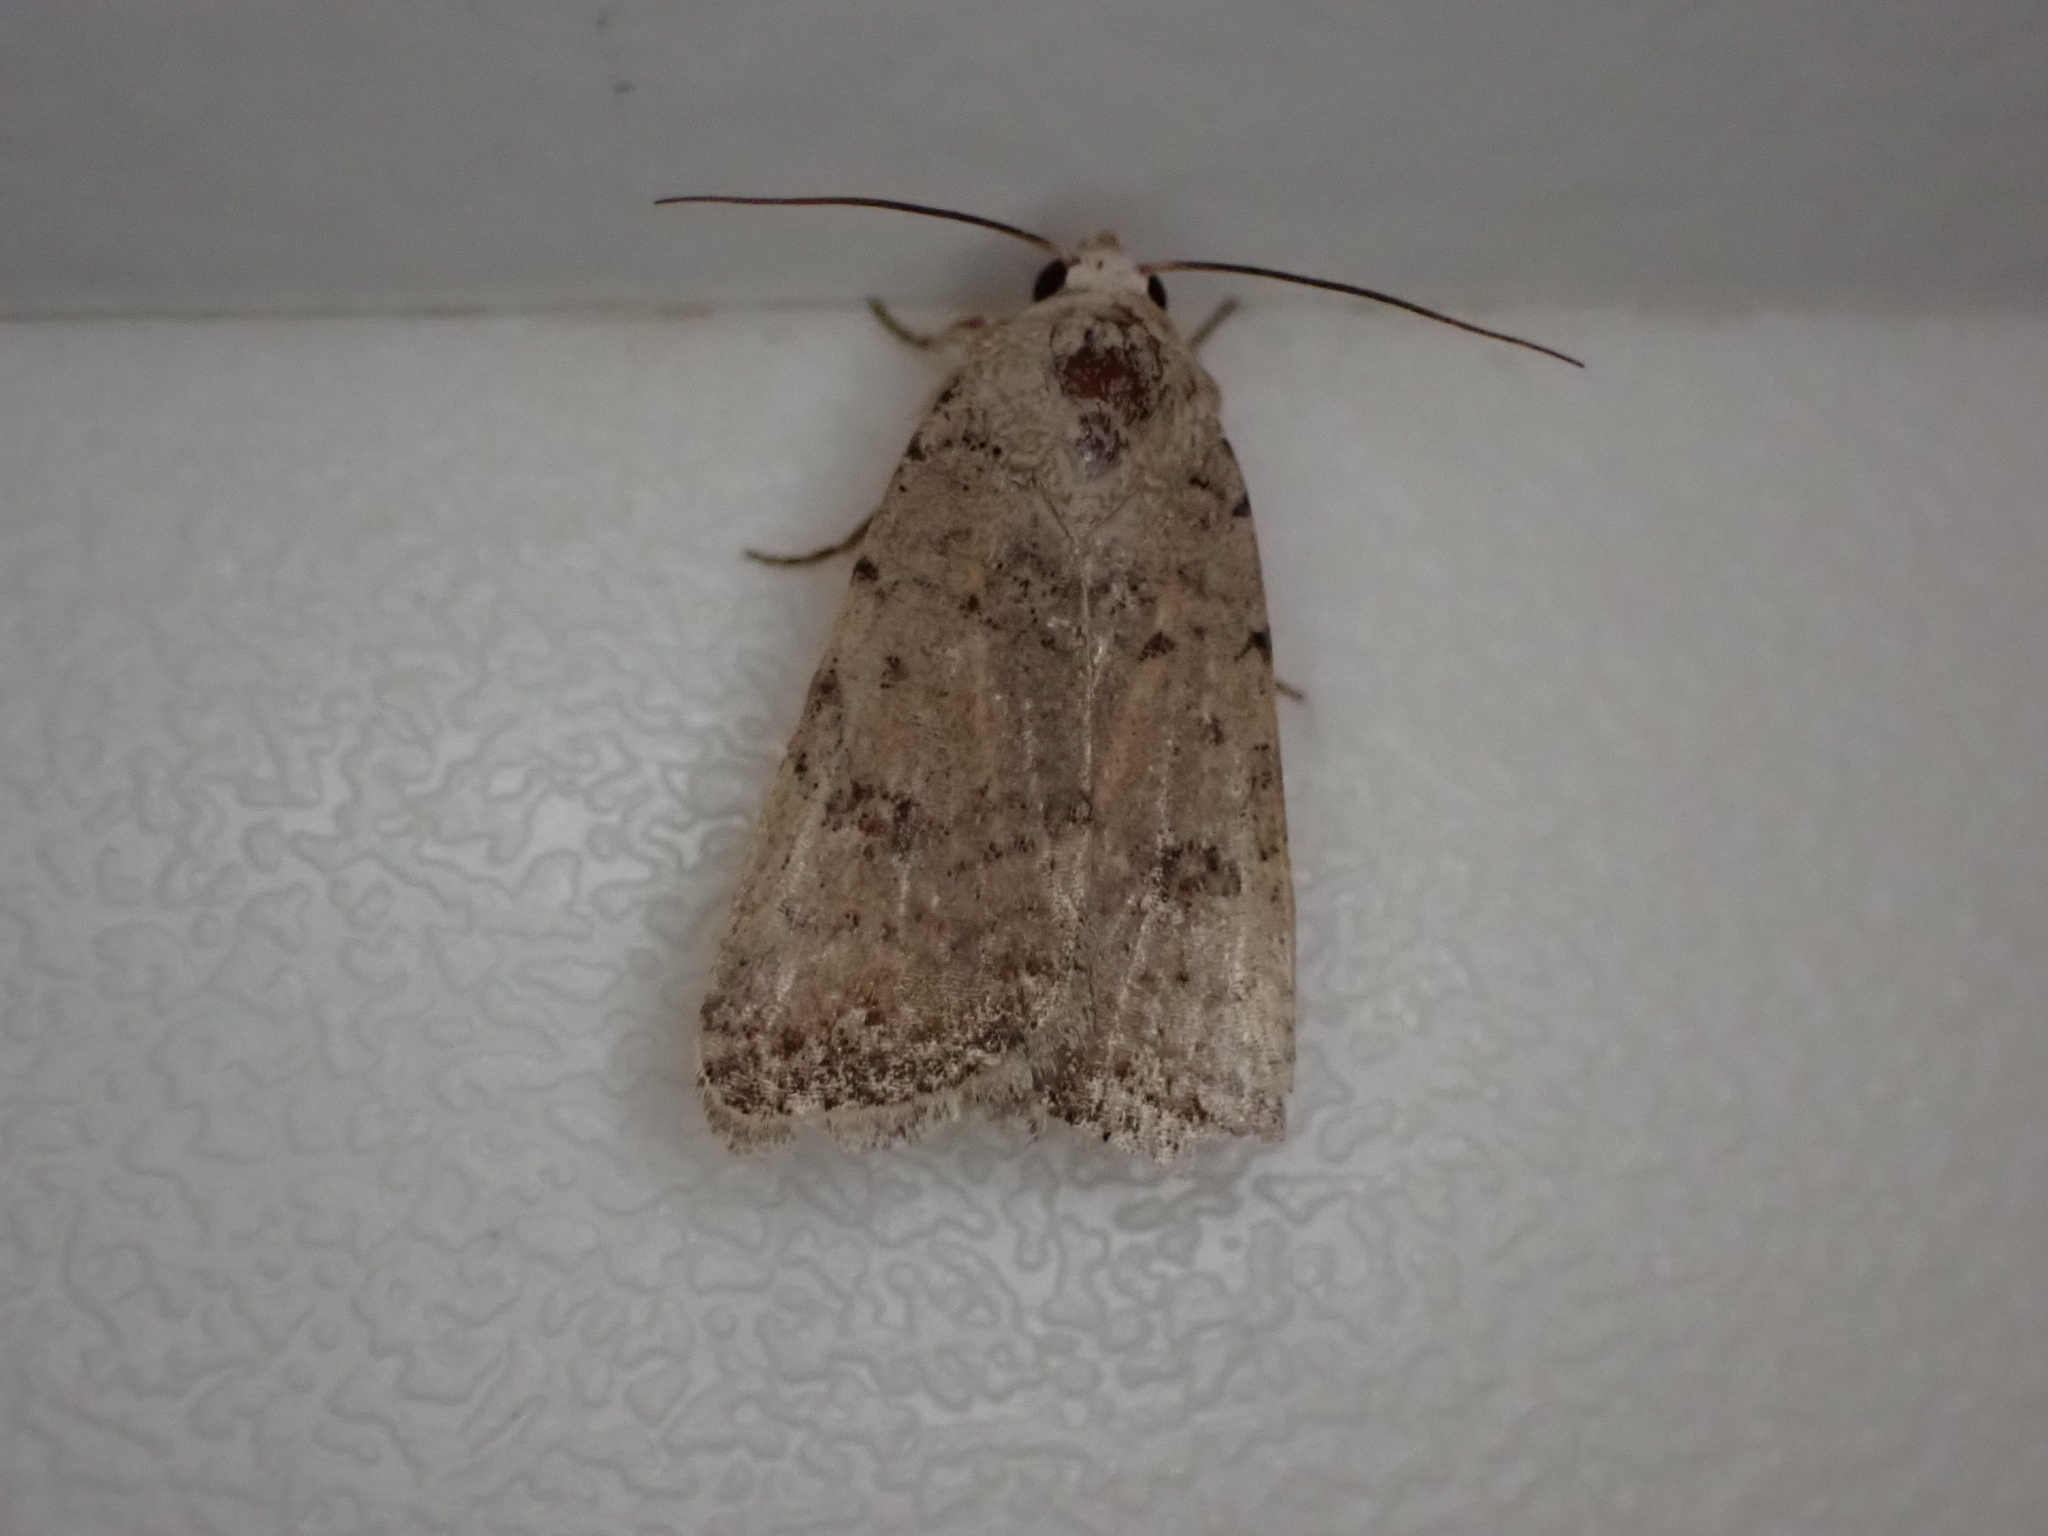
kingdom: Animalia
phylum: Arthropoda
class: Insecta
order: Lepidoptera
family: Noctuidae
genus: Caradrina
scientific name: Caradrina clavipalpis
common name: Pale mottled willow
